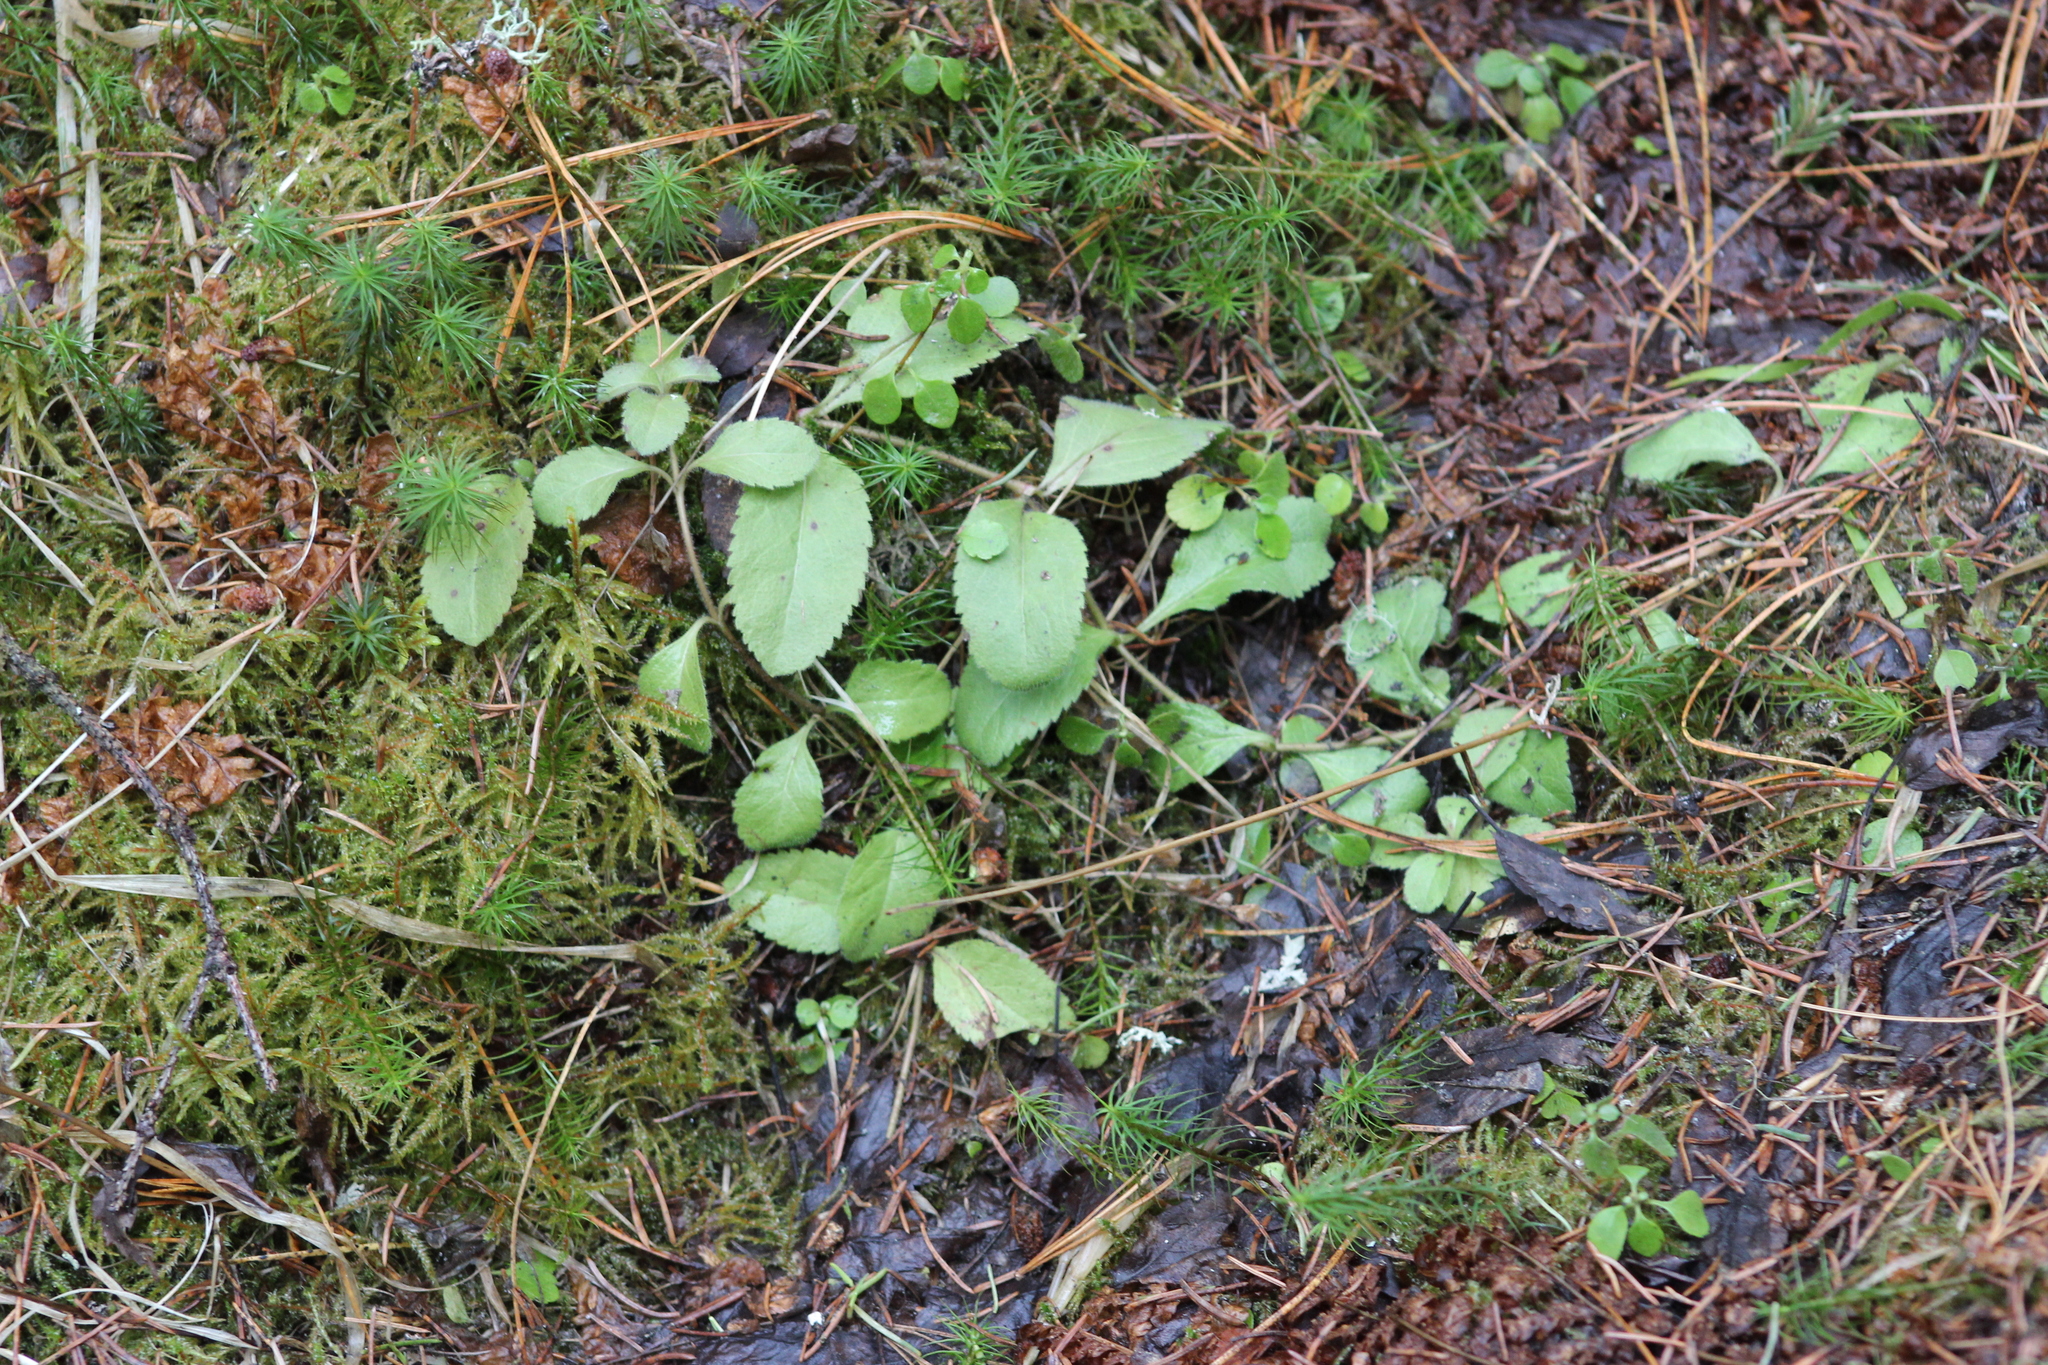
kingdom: Plantae
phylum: Tracheophyta
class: Magnoliopsida
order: Lamiales
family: Plantaginaceae
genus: Veronica
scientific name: Veronica officinalis
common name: Common speedwell
